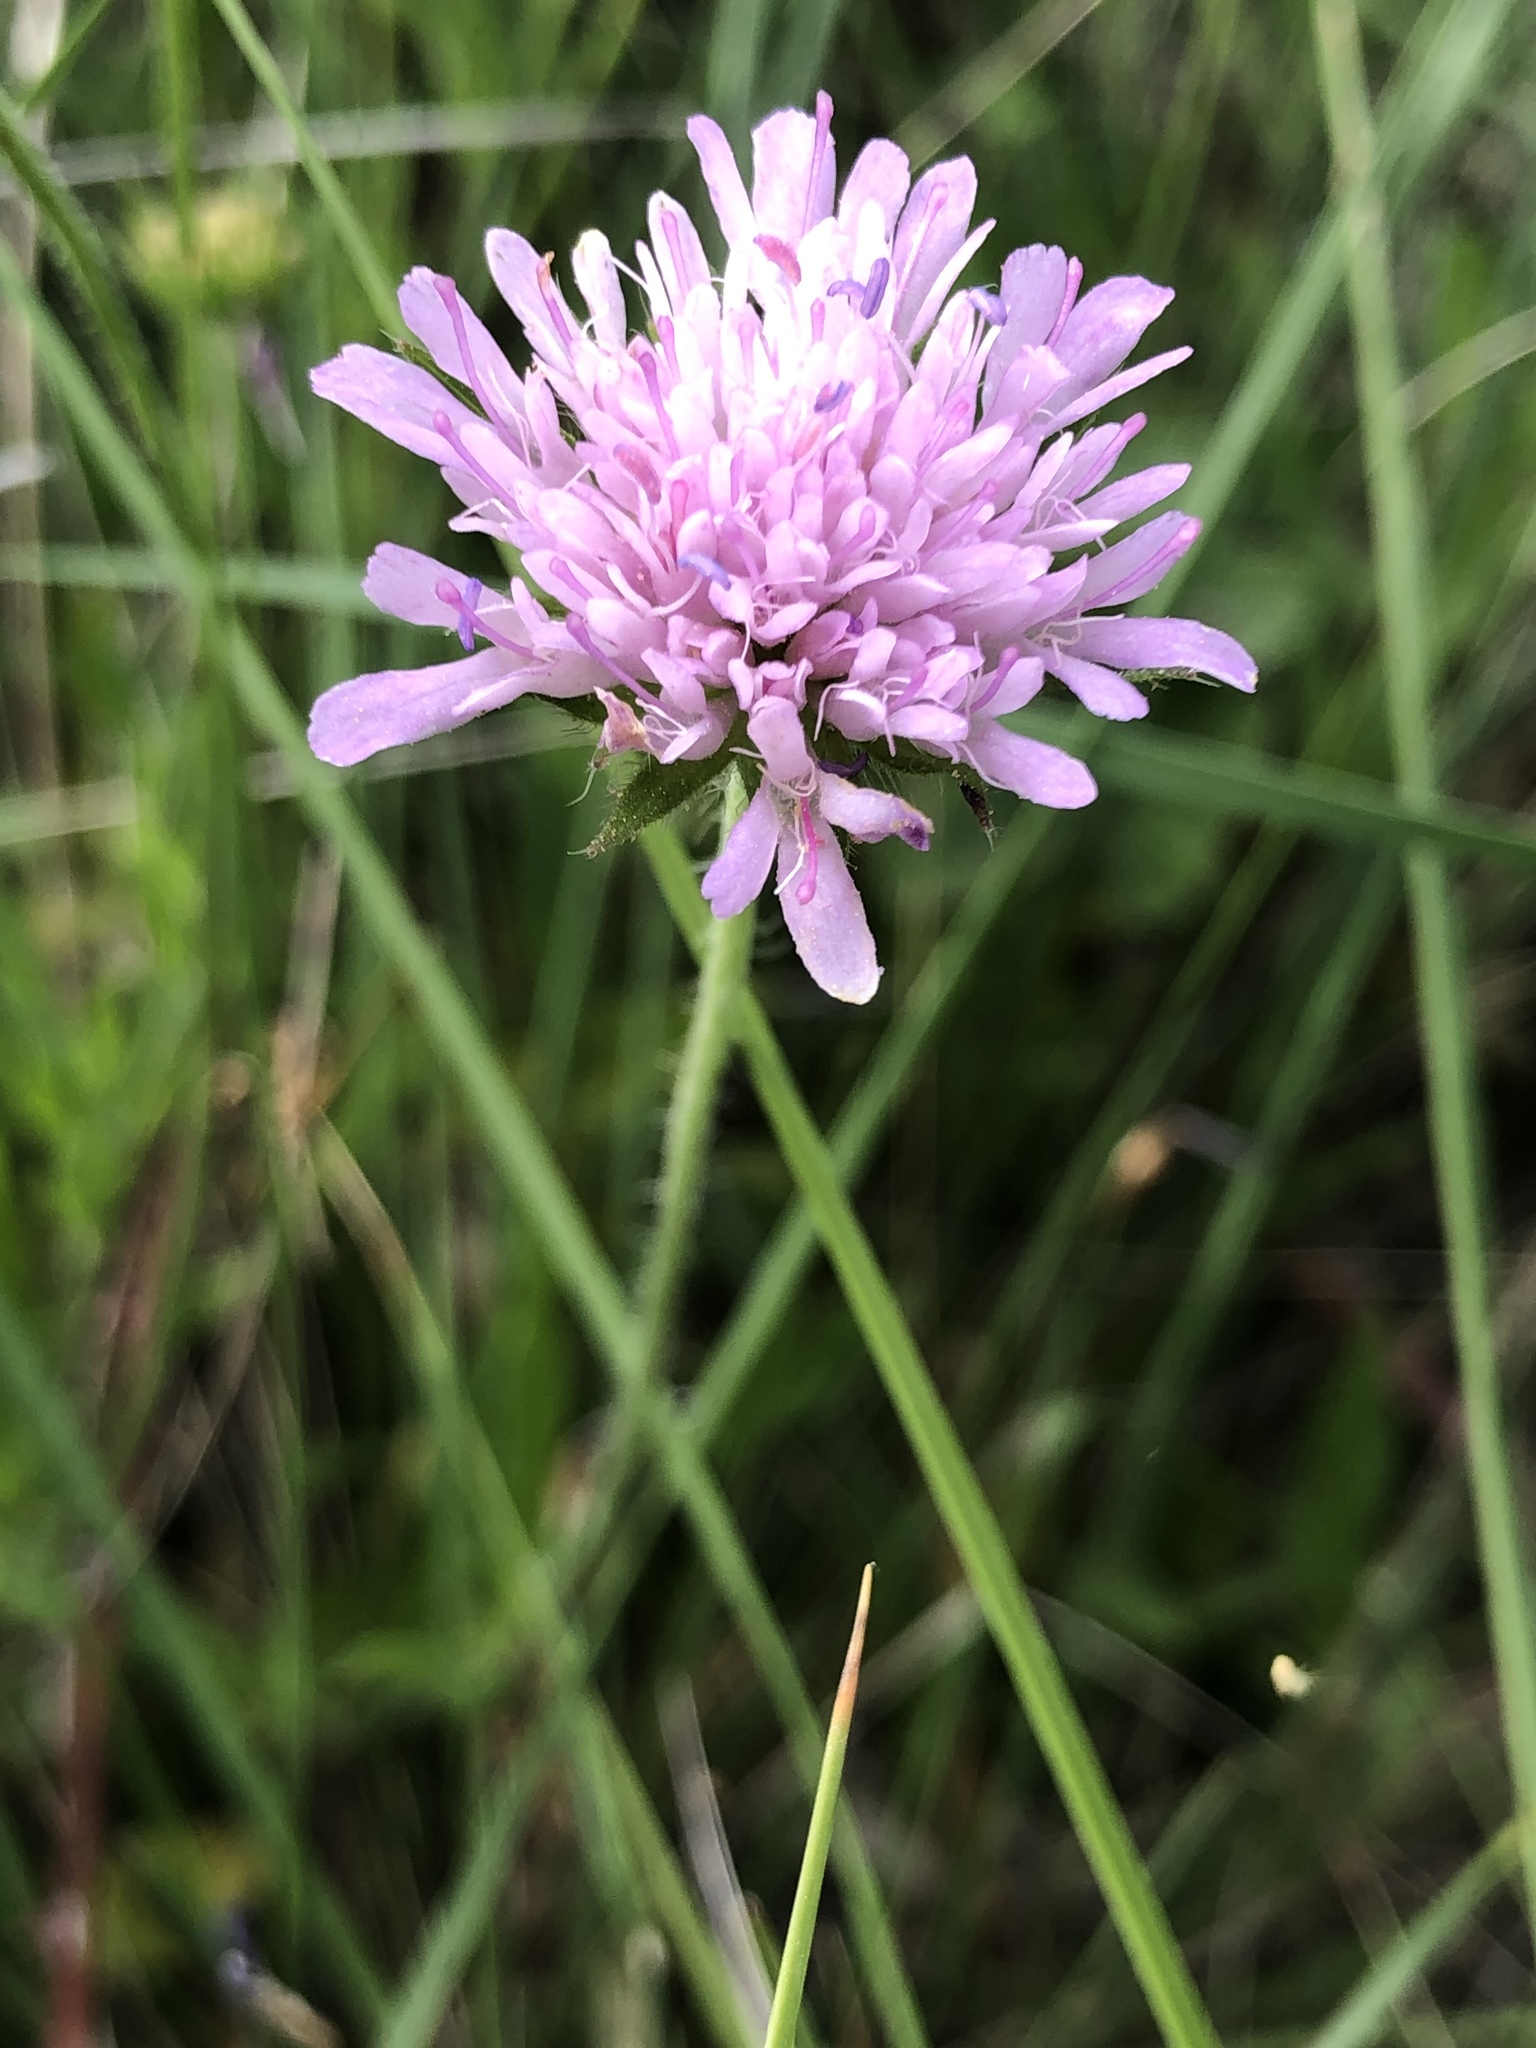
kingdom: Plantae
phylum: Tracheophyta
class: Magnoliopsida
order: Dipsacales
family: Caprifoliaceae
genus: Knautia
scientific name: Knautia arvensis
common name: Field scabiosa
